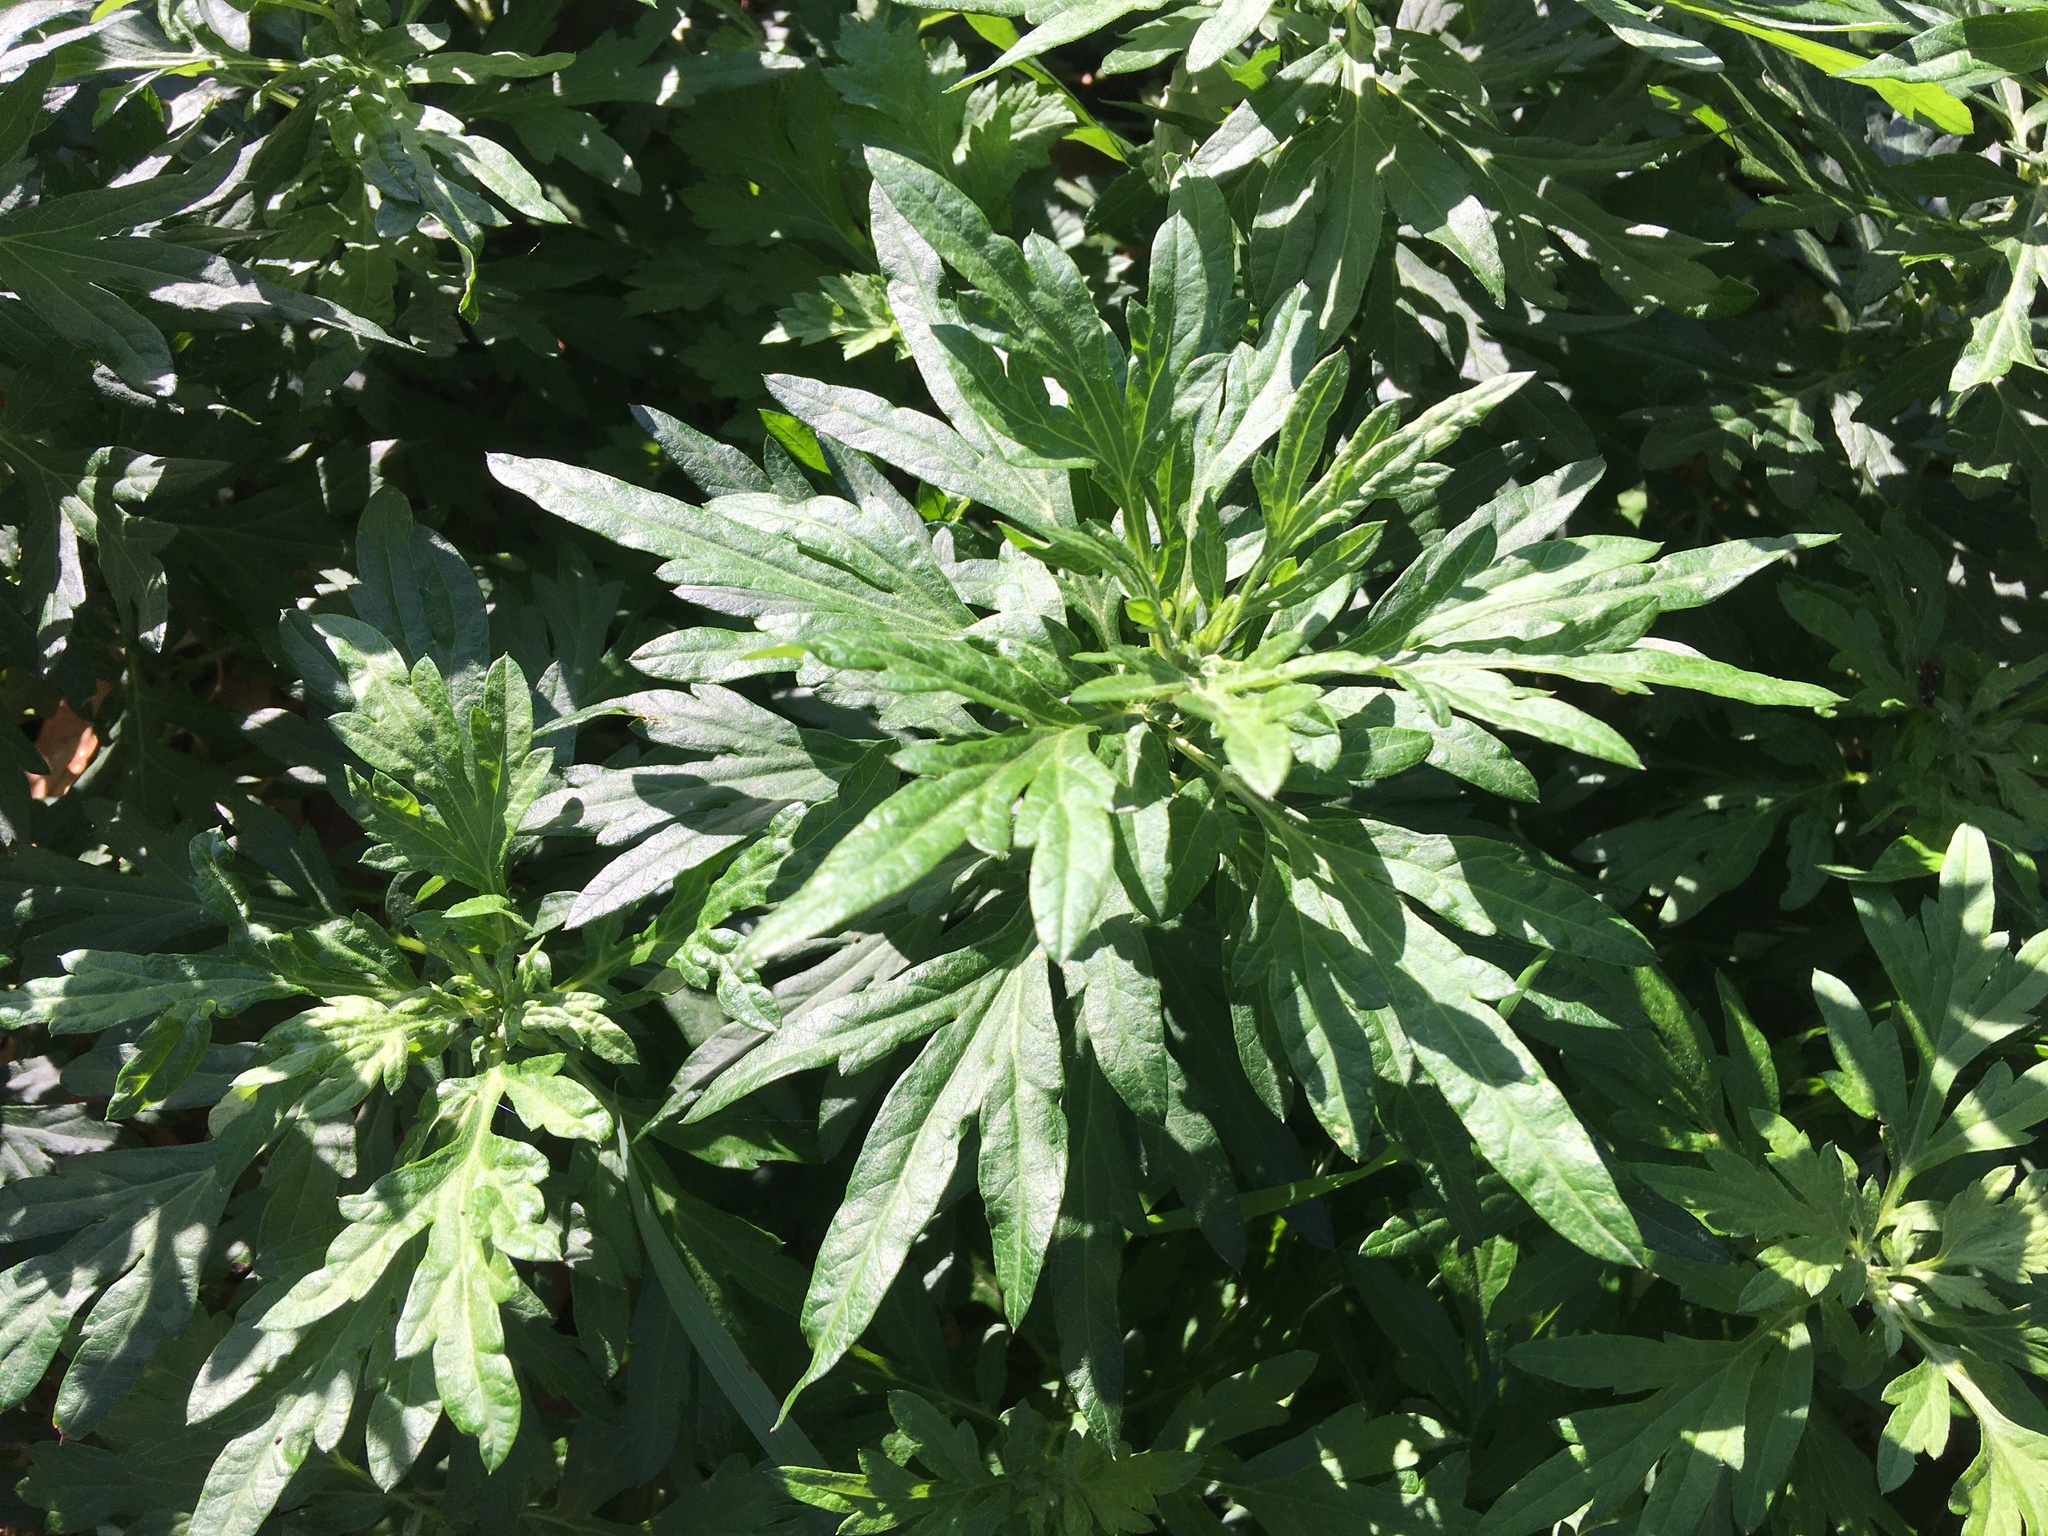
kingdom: Plantae
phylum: Tracheophyta
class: Magnoliopsida
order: Asterales
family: Asteraceae
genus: Artemisia
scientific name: Artemisia vulgaris
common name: Mugwort
